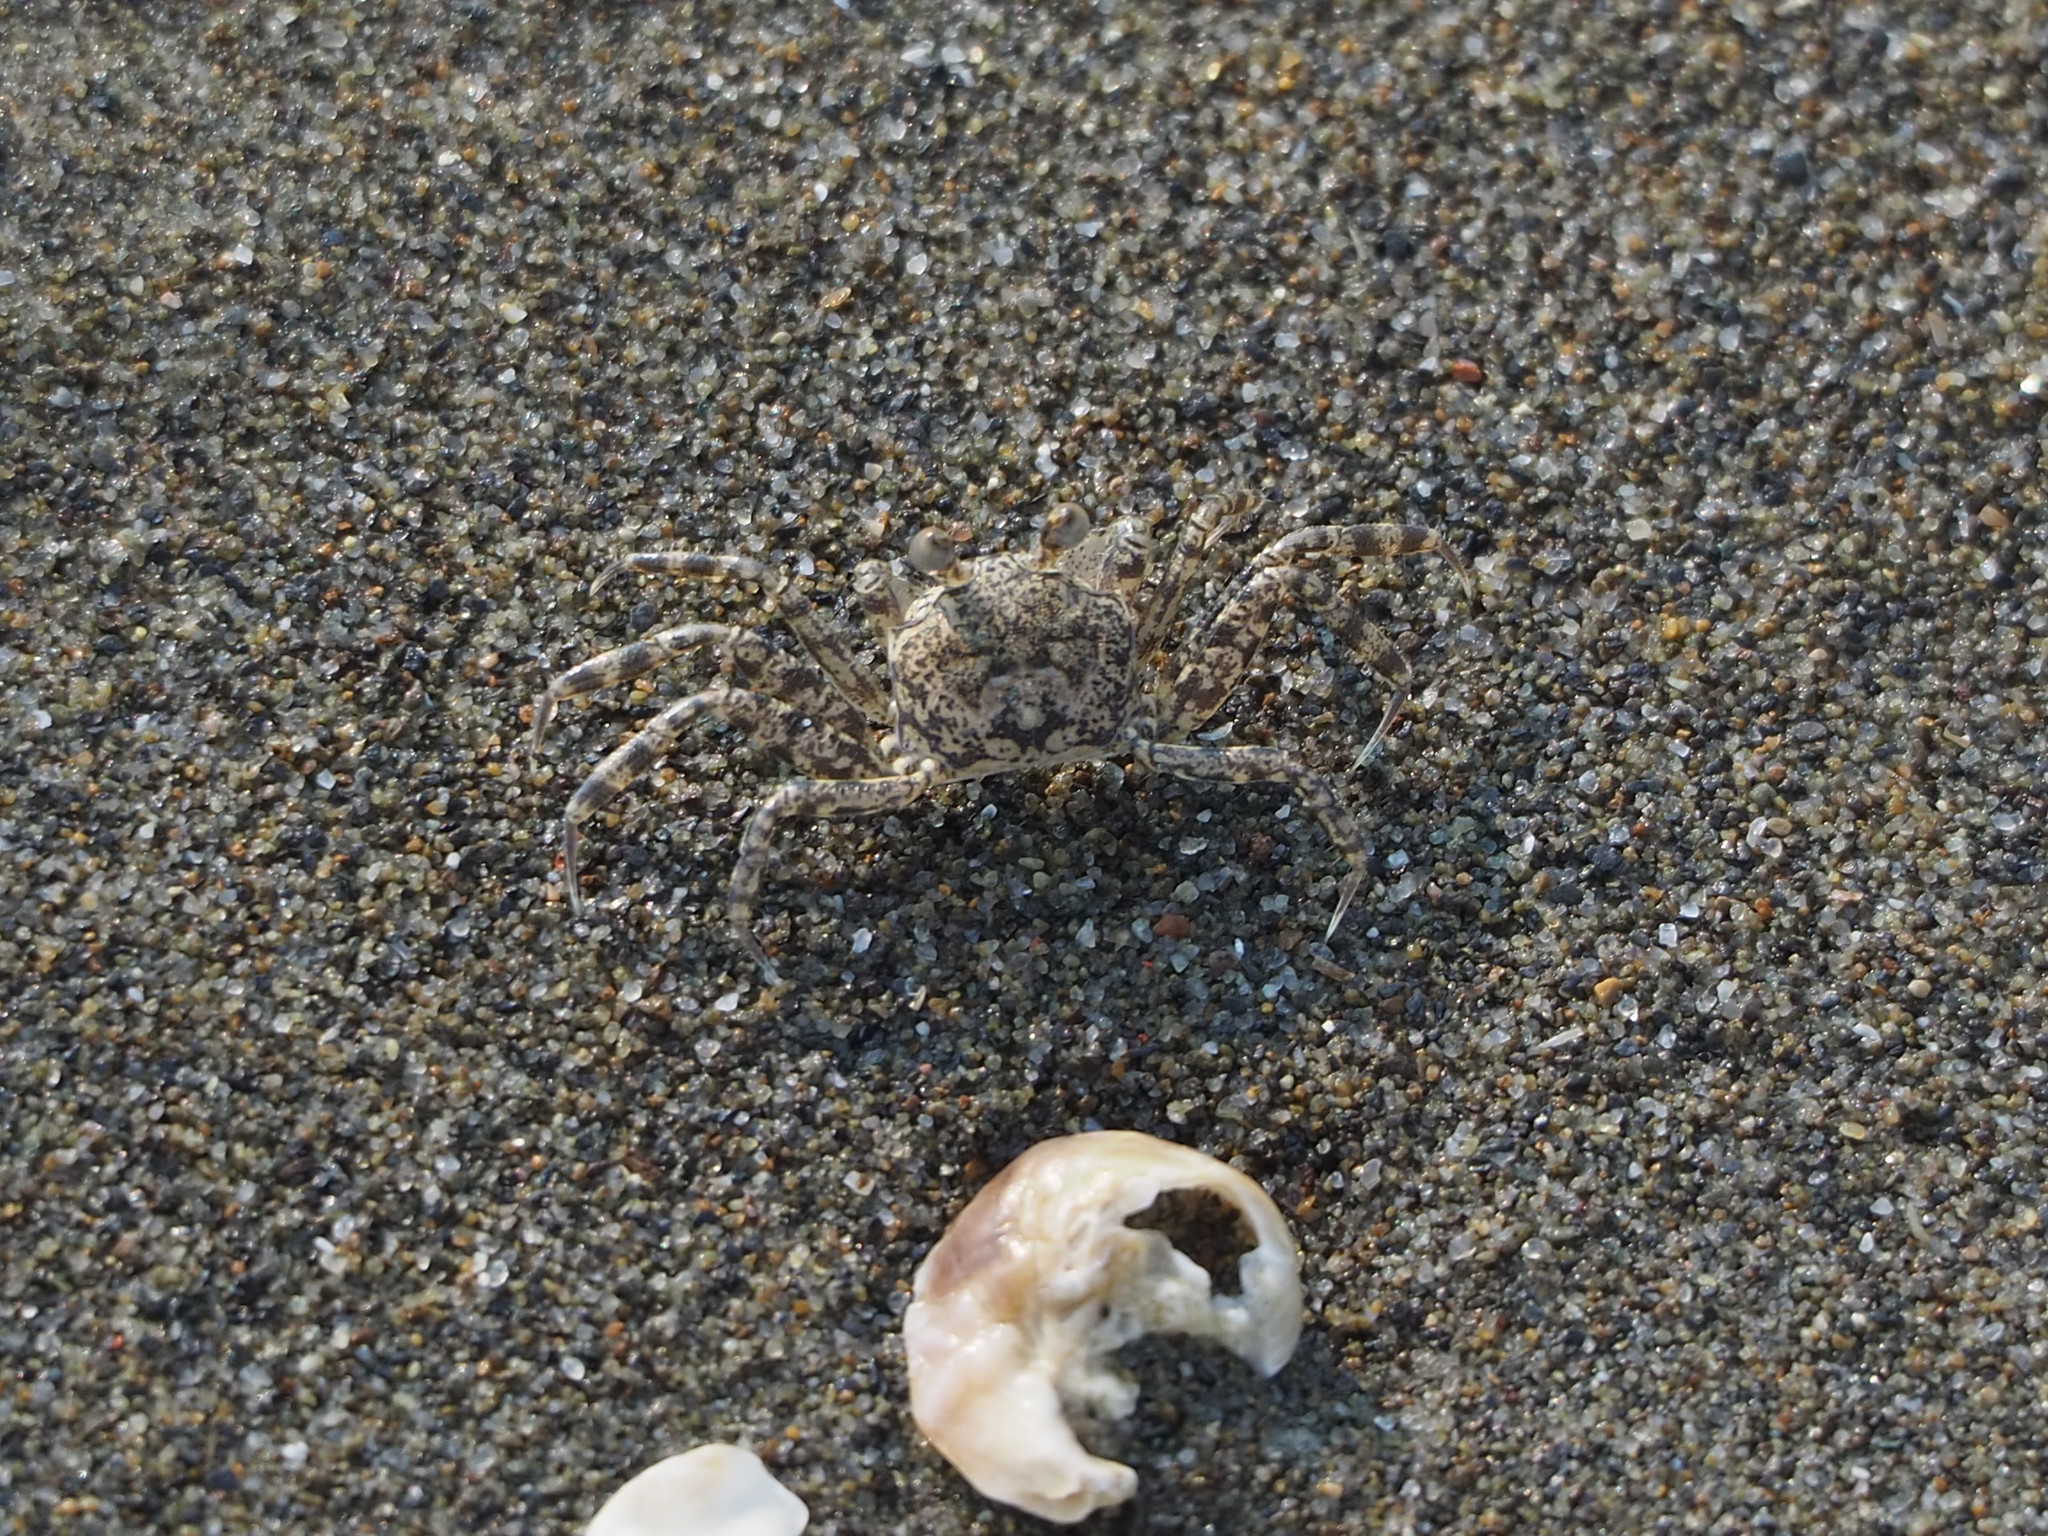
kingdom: Animalia
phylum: Arthropoda
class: Malacostraca
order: Decapoda
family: Ocypodidae
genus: Ocypode
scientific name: Ocypode ceratophthalmus
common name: Indo-pacific ghost crab
